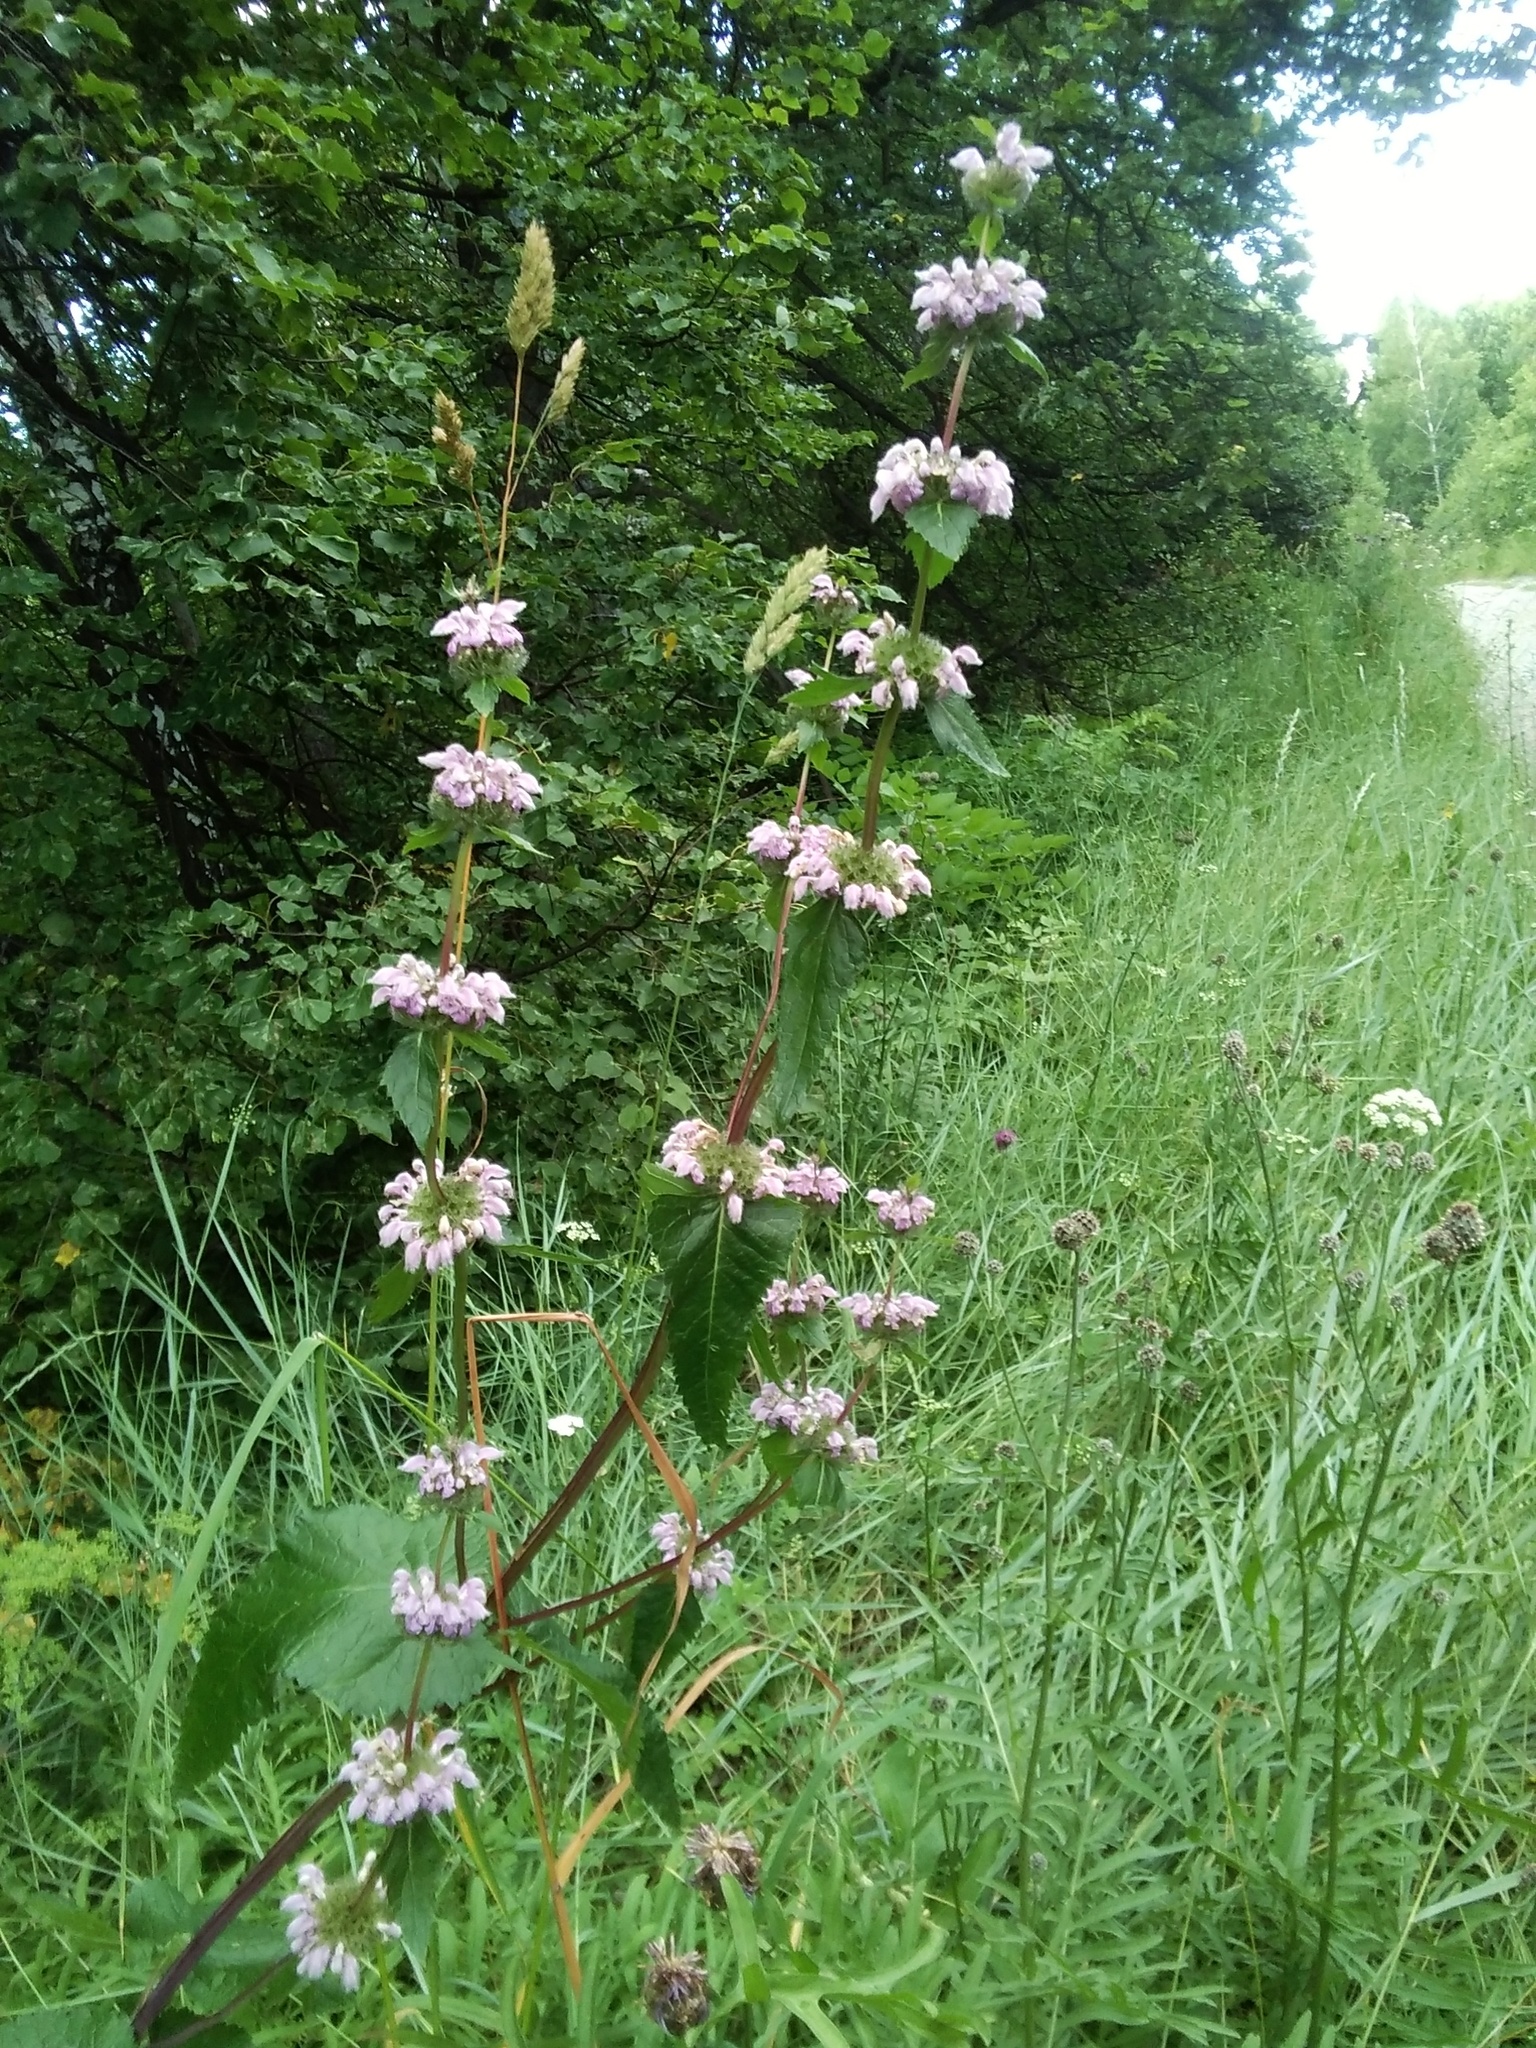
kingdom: Plantae
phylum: Tracheophyta
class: Magnoliopsida
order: Lamiales
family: Lamiaceae
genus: Phlomoides
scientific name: Phlomoides tuberosa
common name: Tuberous jerusalem sage
